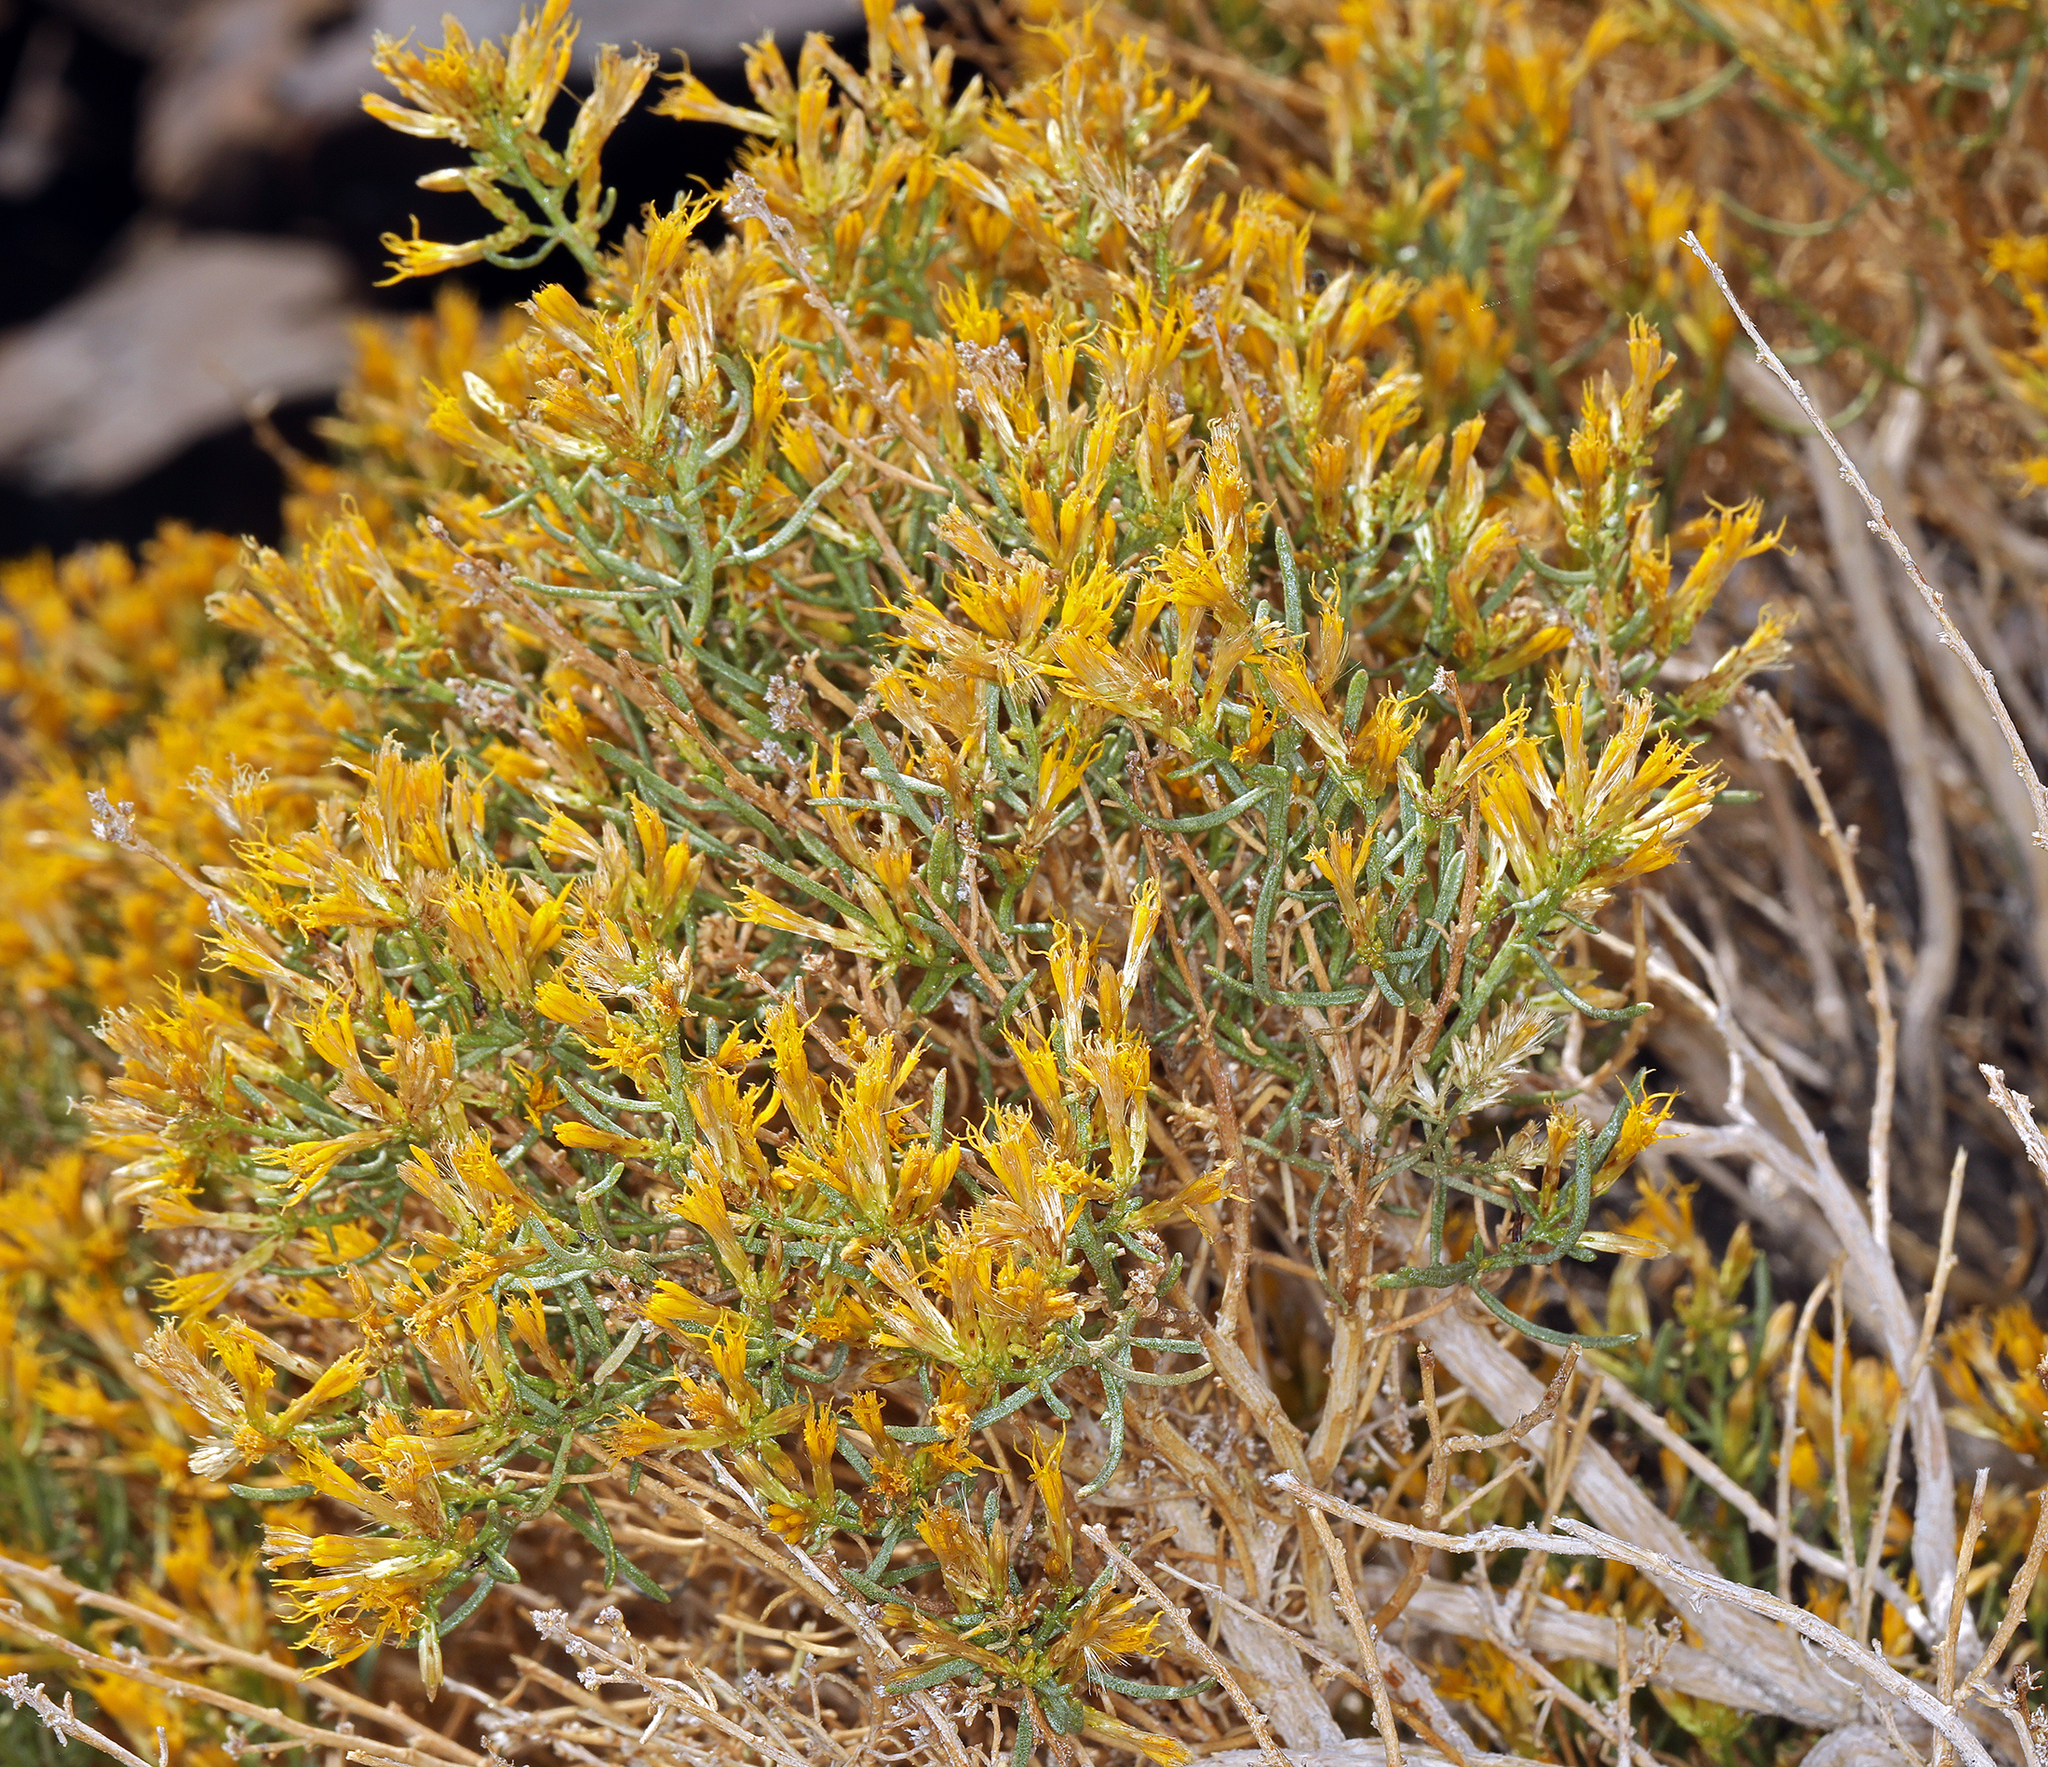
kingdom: Plantae
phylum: Tracheophyta
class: Magnoliopsida
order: Asterales
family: Asteraceae
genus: Ericameria
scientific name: Ericameria teretifolia
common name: Round-leaf rabbitbrush
